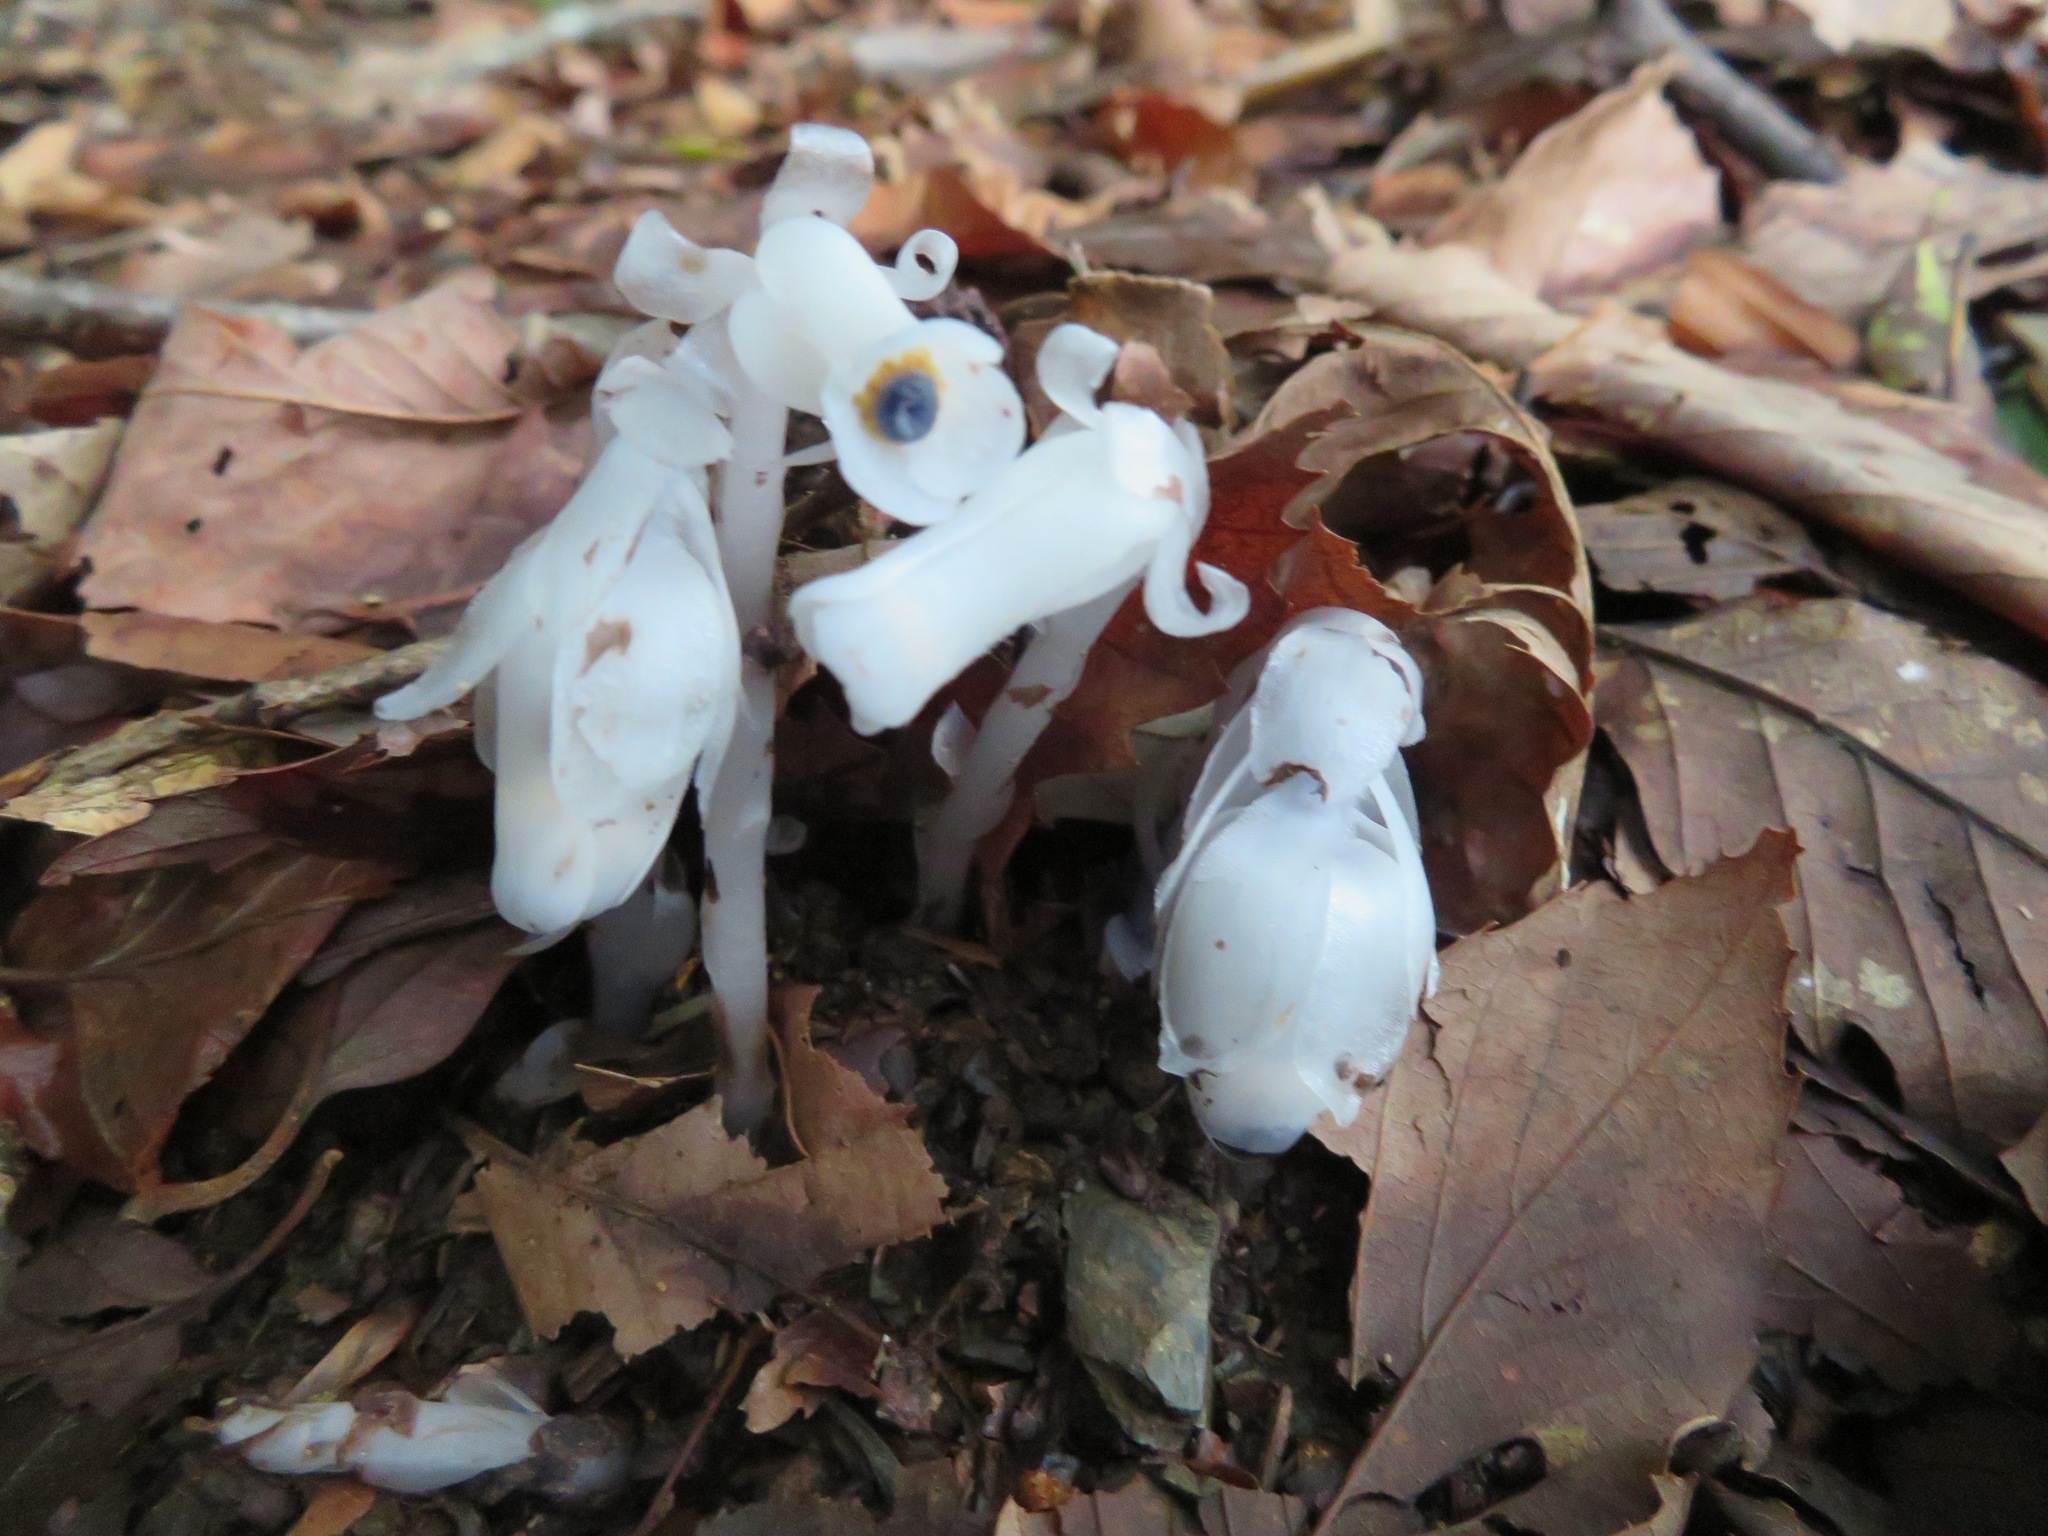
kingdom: Plantae
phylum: Tracheophyta
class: Magnoliopsida
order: Ericales
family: Ericaceae
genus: Monotropastrum
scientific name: Monotropastrum humile
